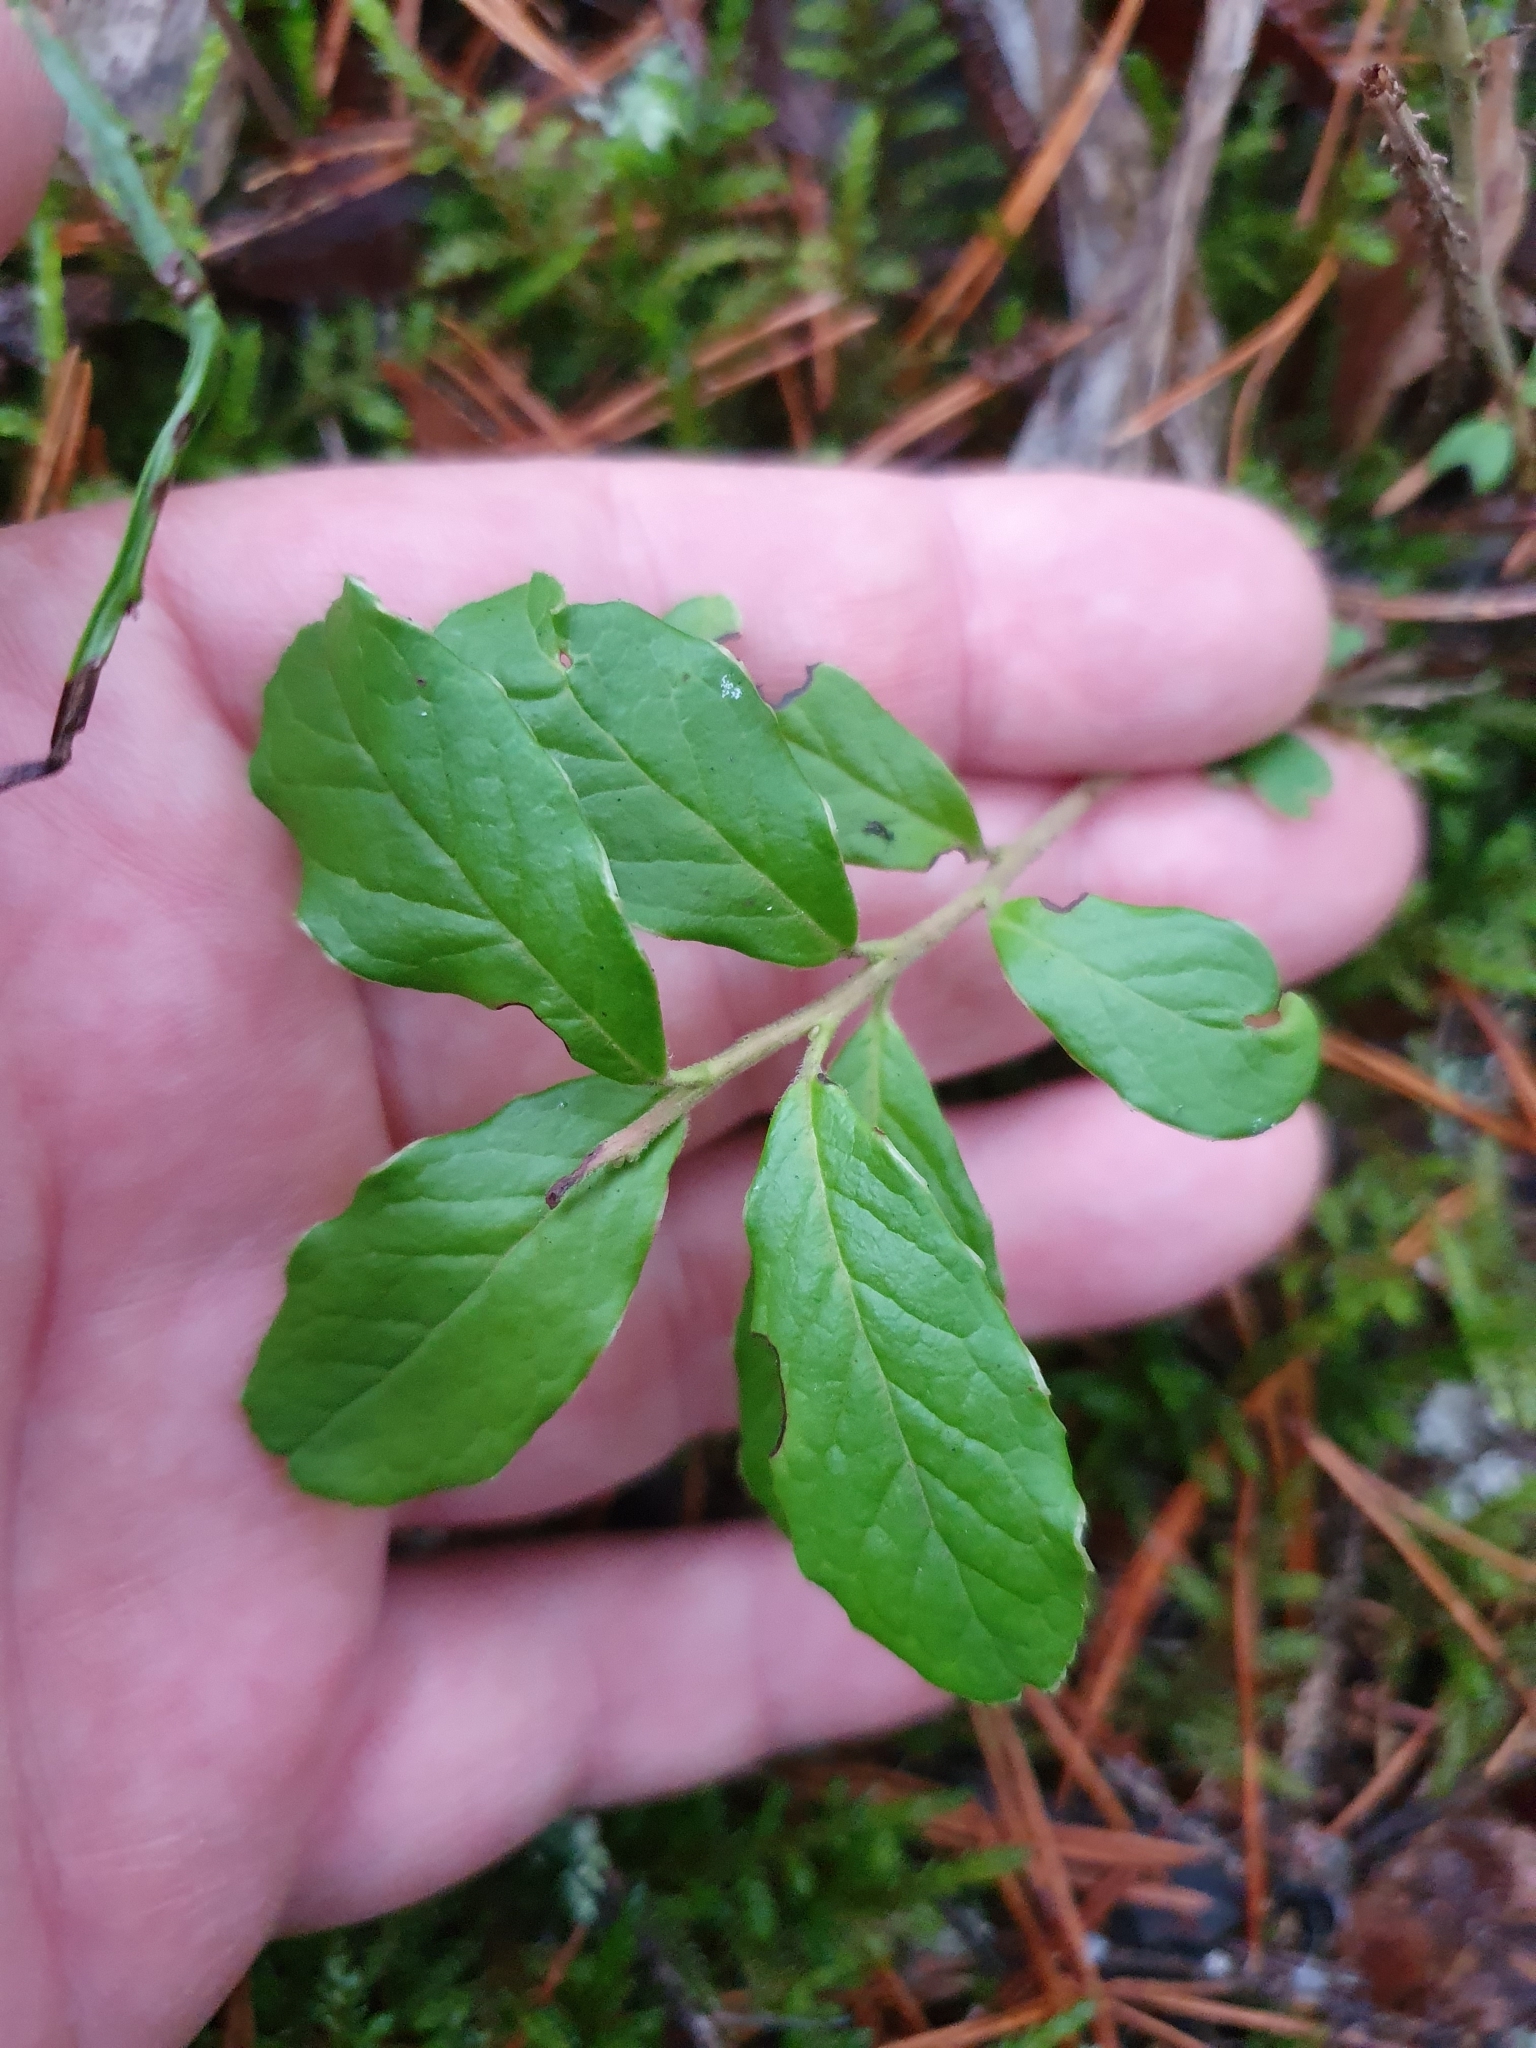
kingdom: Plantae
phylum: Tracheophyta
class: Magnoliopsida
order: Ericales
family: Ericaceae
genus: Vaccinium
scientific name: Vaccinium vitis-idaea
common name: Cowberry
